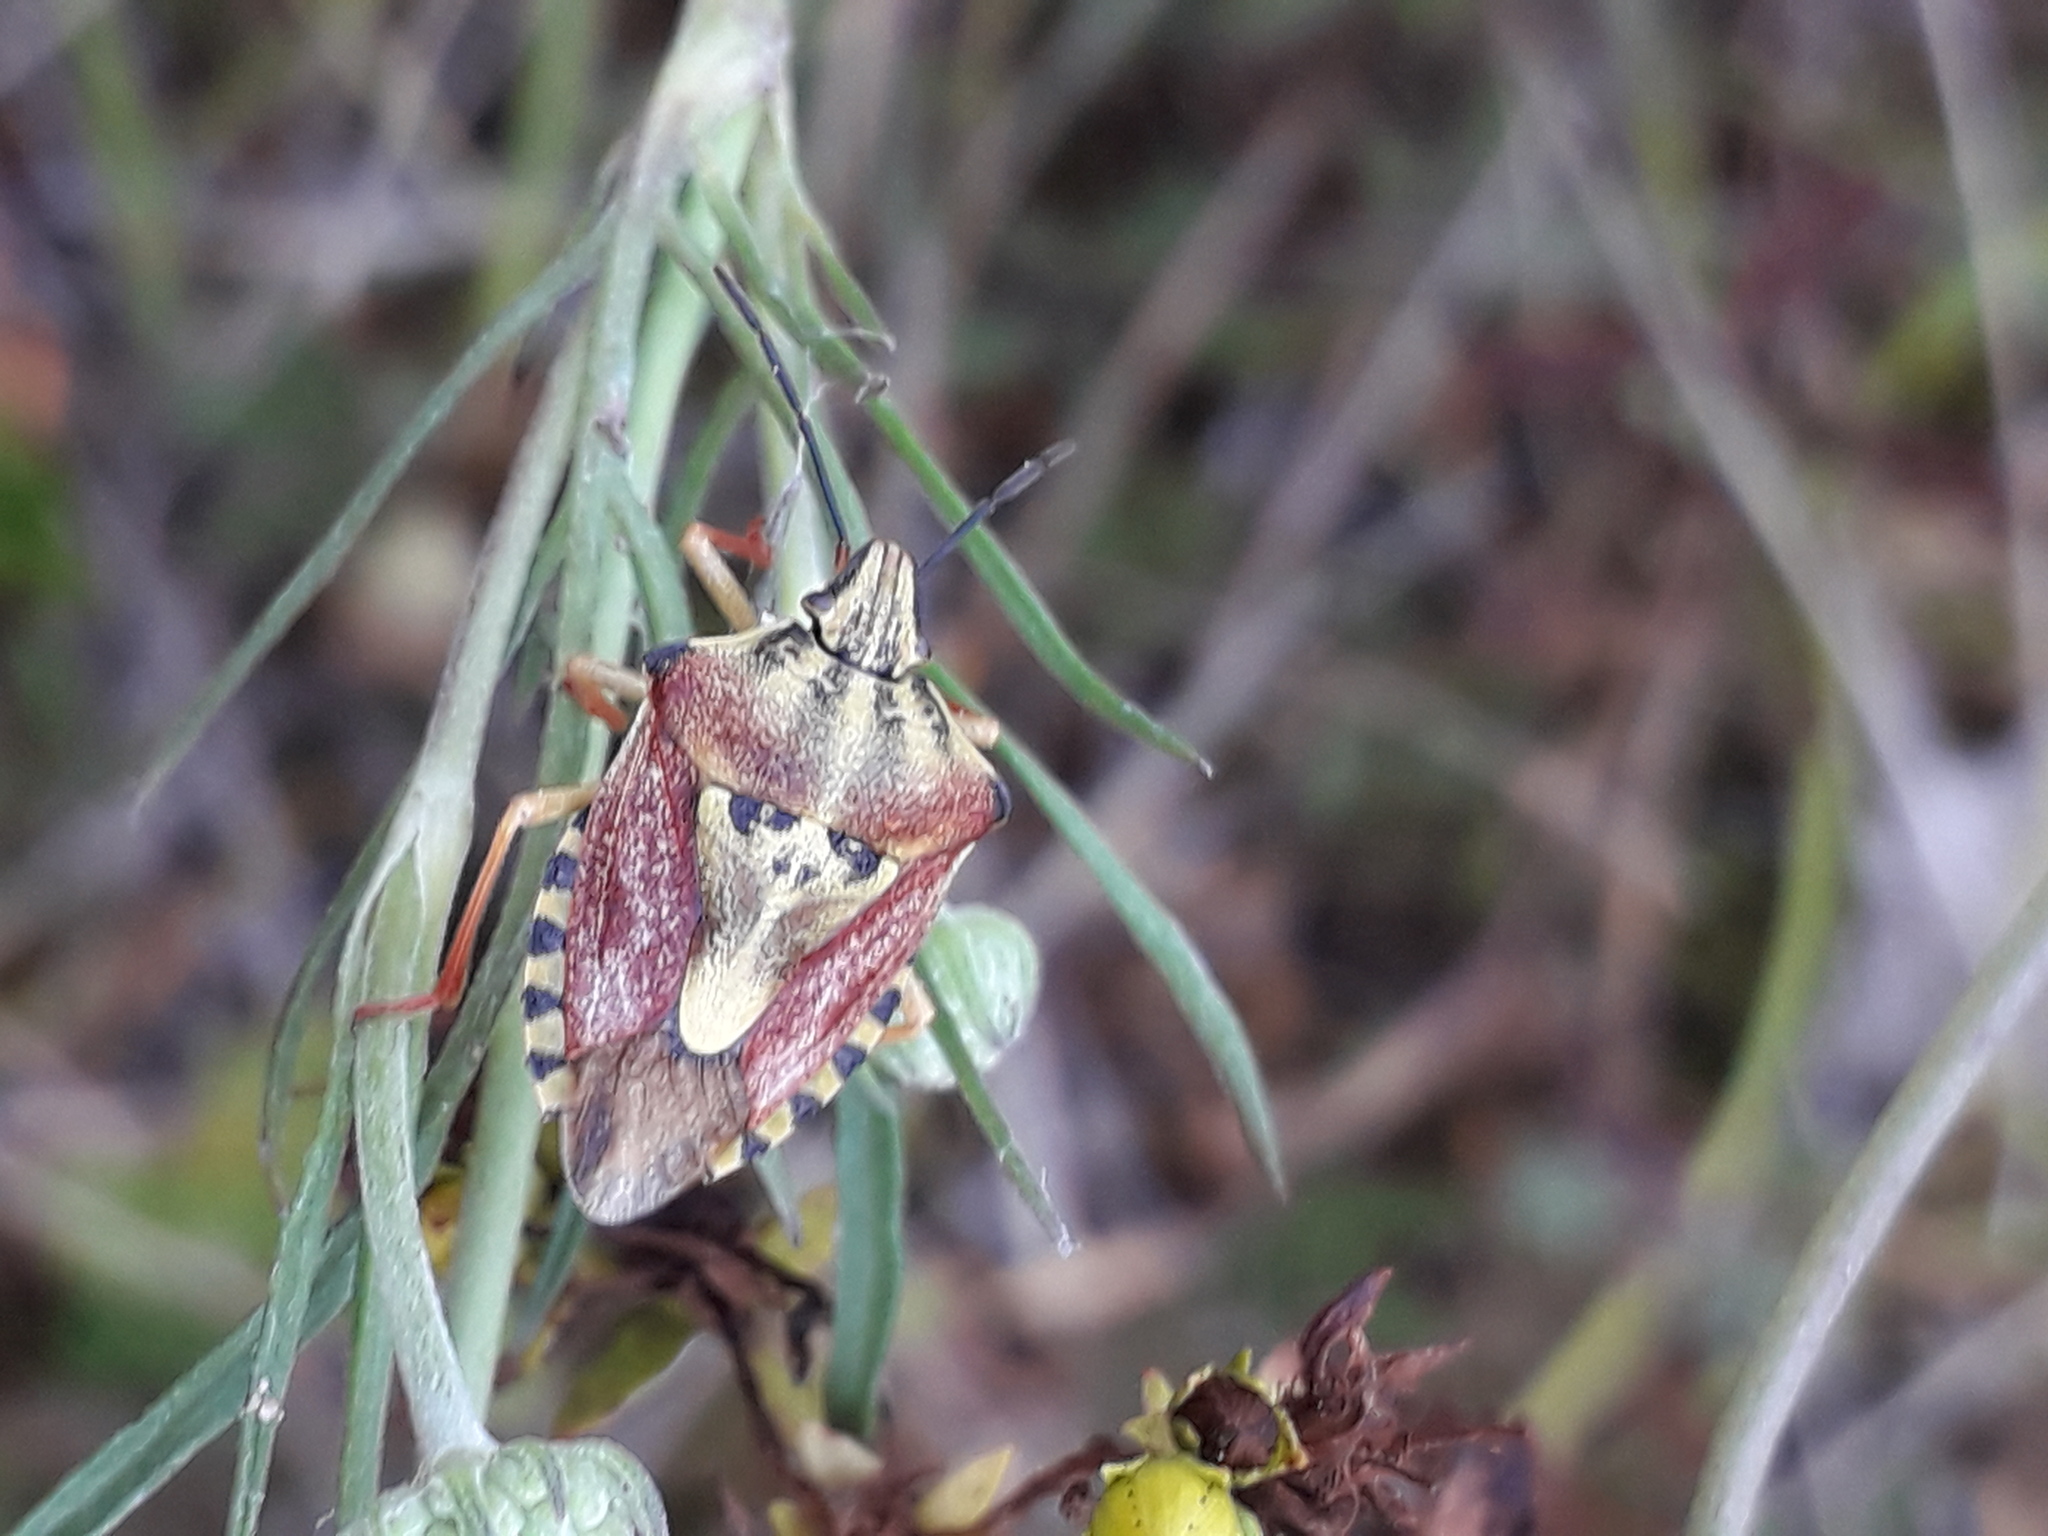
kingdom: Animalia
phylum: Arthropoda
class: Insecta
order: Hemiptera
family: Pentatomidae
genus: Carpocoris
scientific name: Carpocoris purpureipennis
